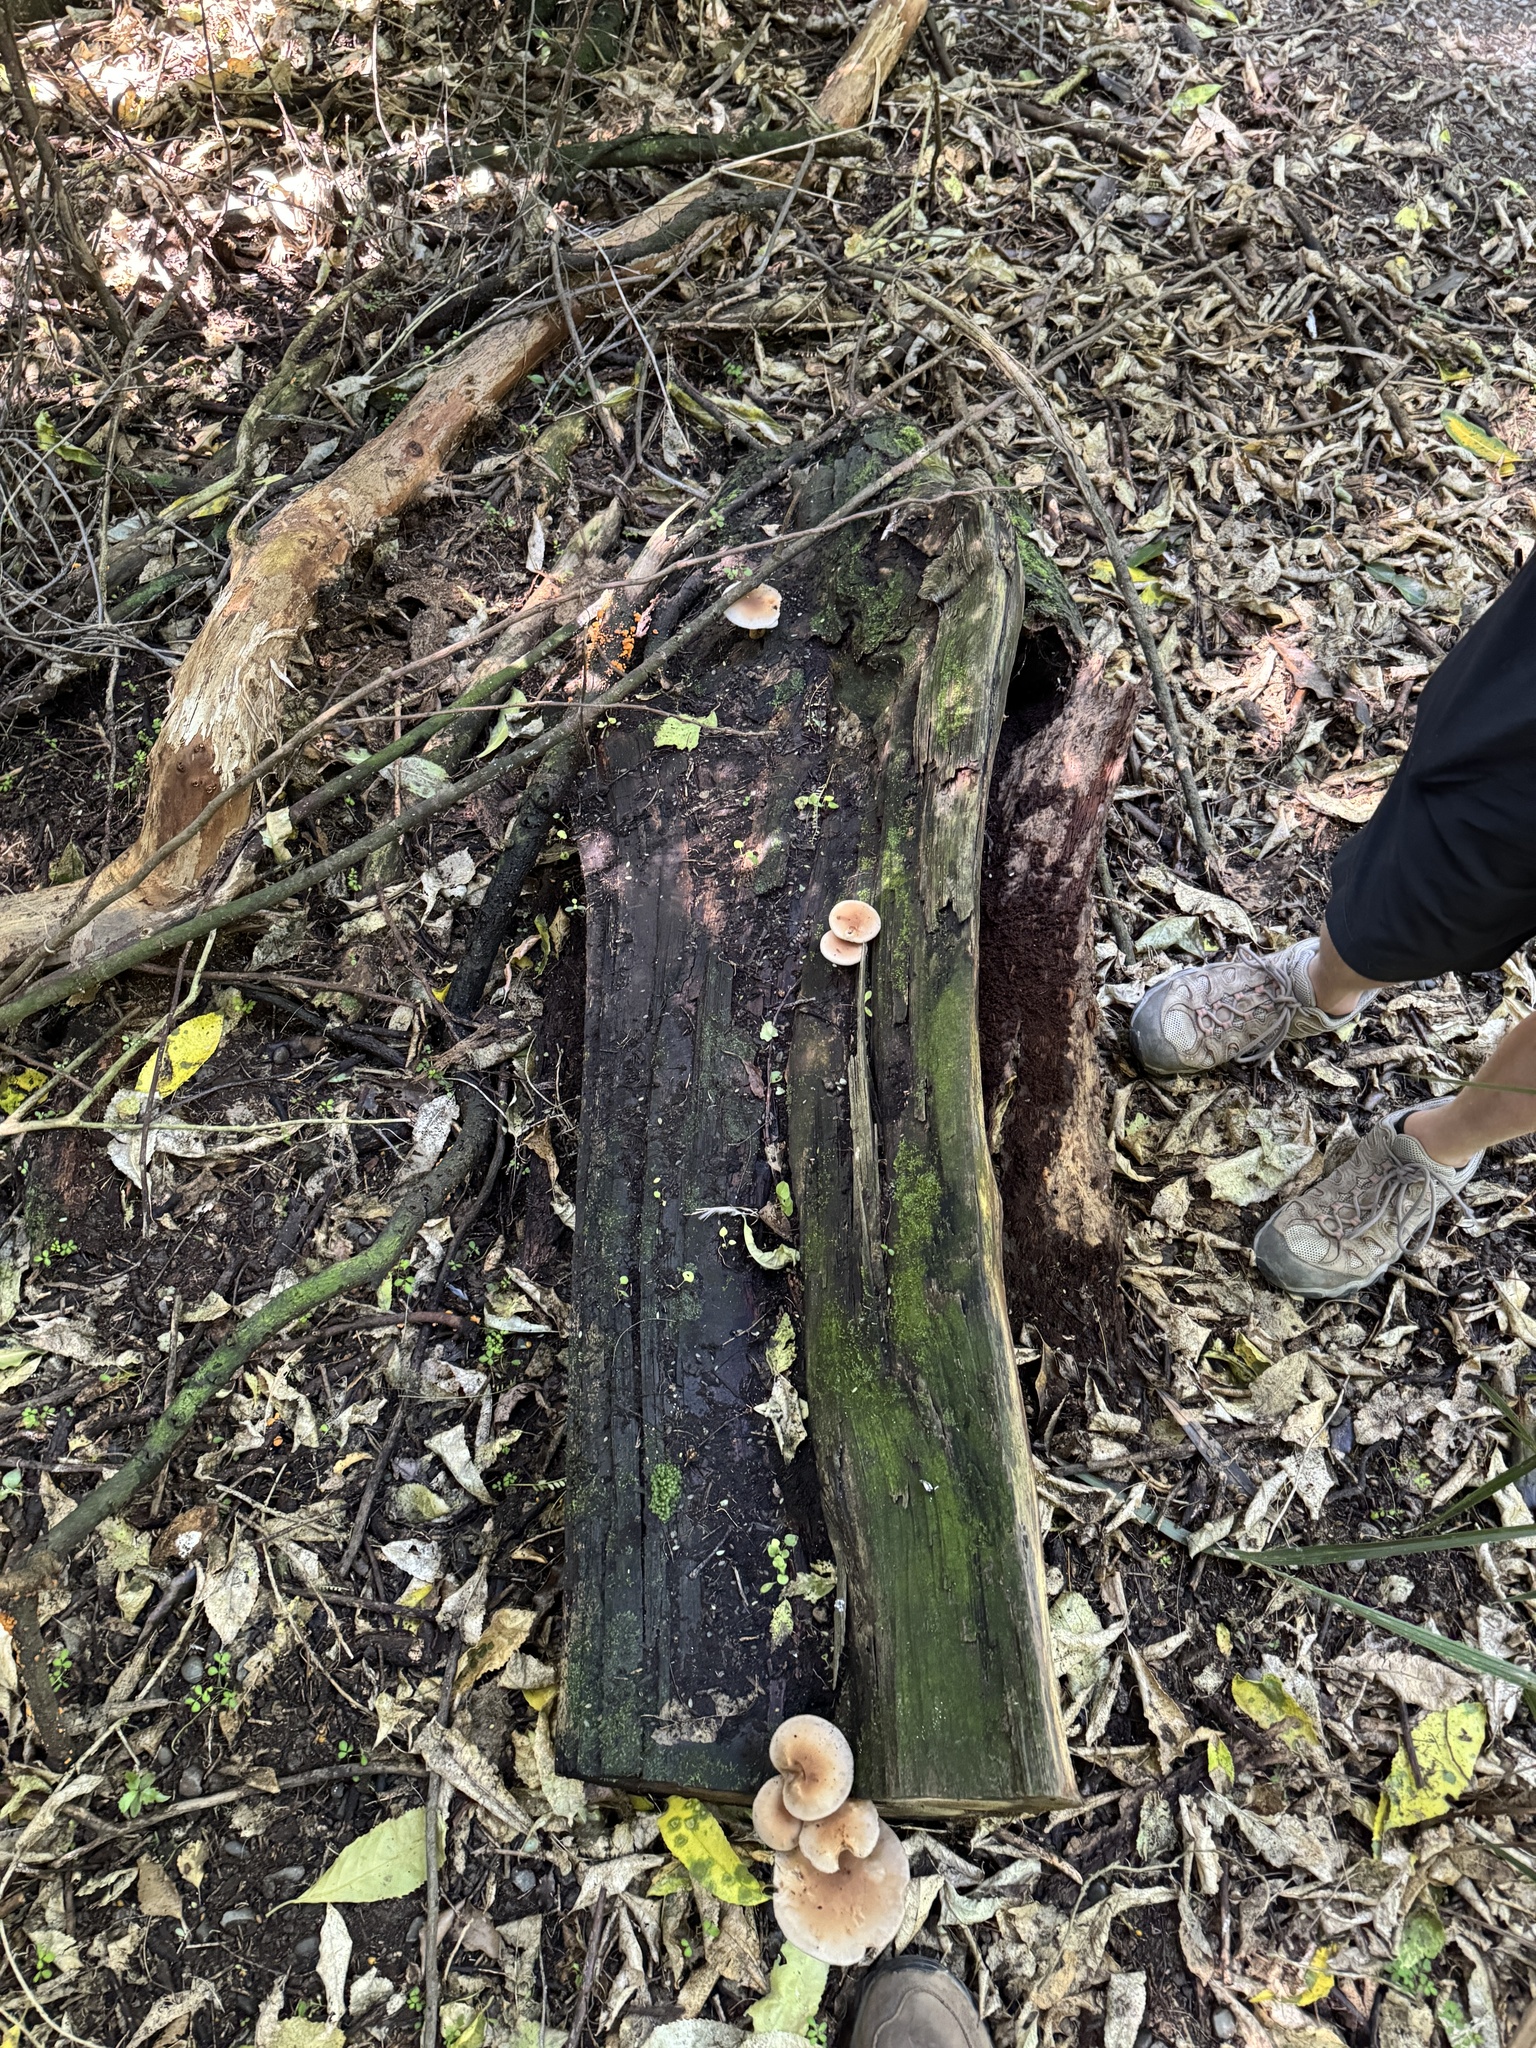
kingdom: Fungi
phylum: Basidiomycota
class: Agaricomycetes
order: Agaricales
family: Tubariaceae
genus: Cyclocybe
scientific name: Cyclocybe parasitica
